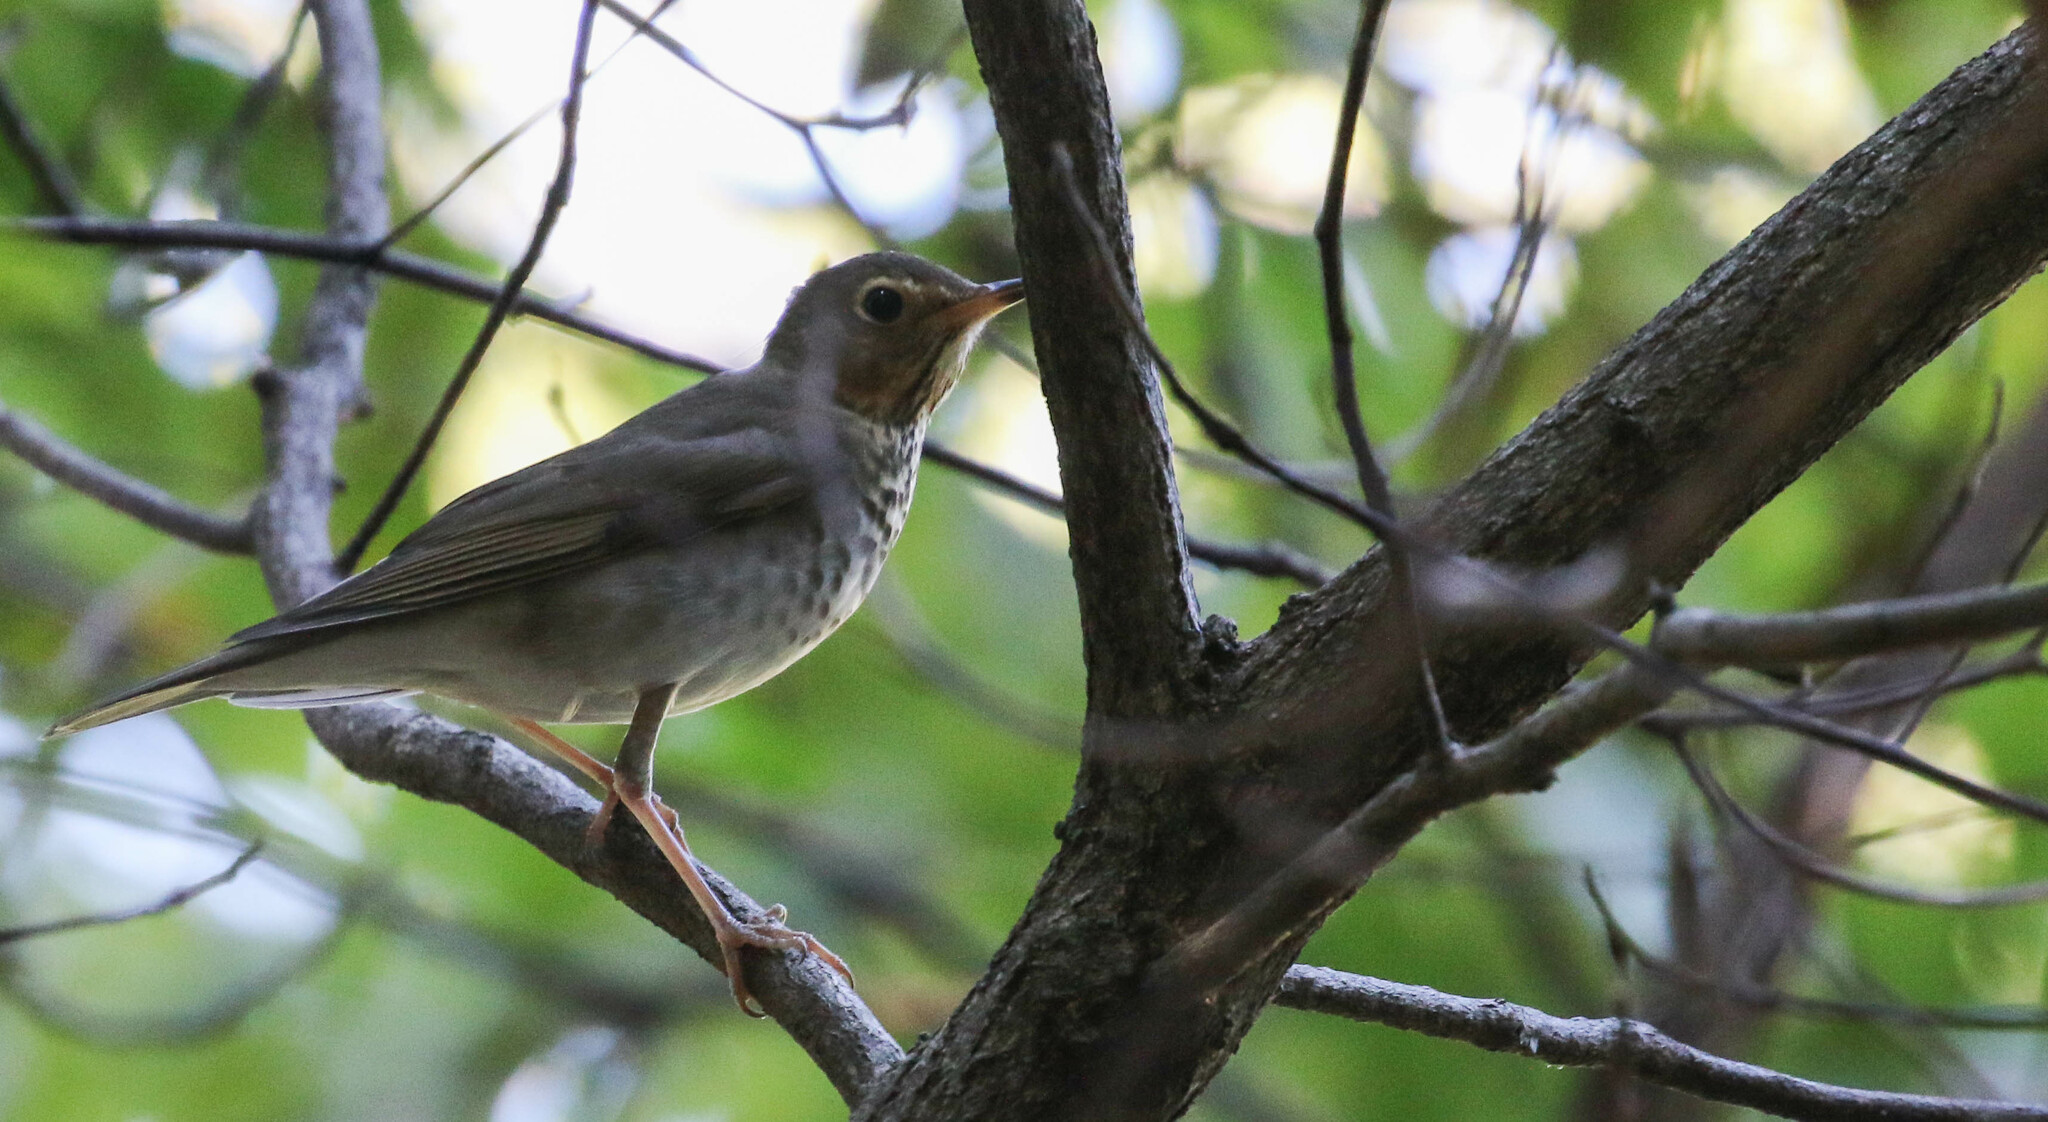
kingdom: Animalia
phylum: Chordata
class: Aves
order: Passeriformes
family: Turdidae
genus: Catharus
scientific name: Catharus ustulatus
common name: Swainson's thrush
